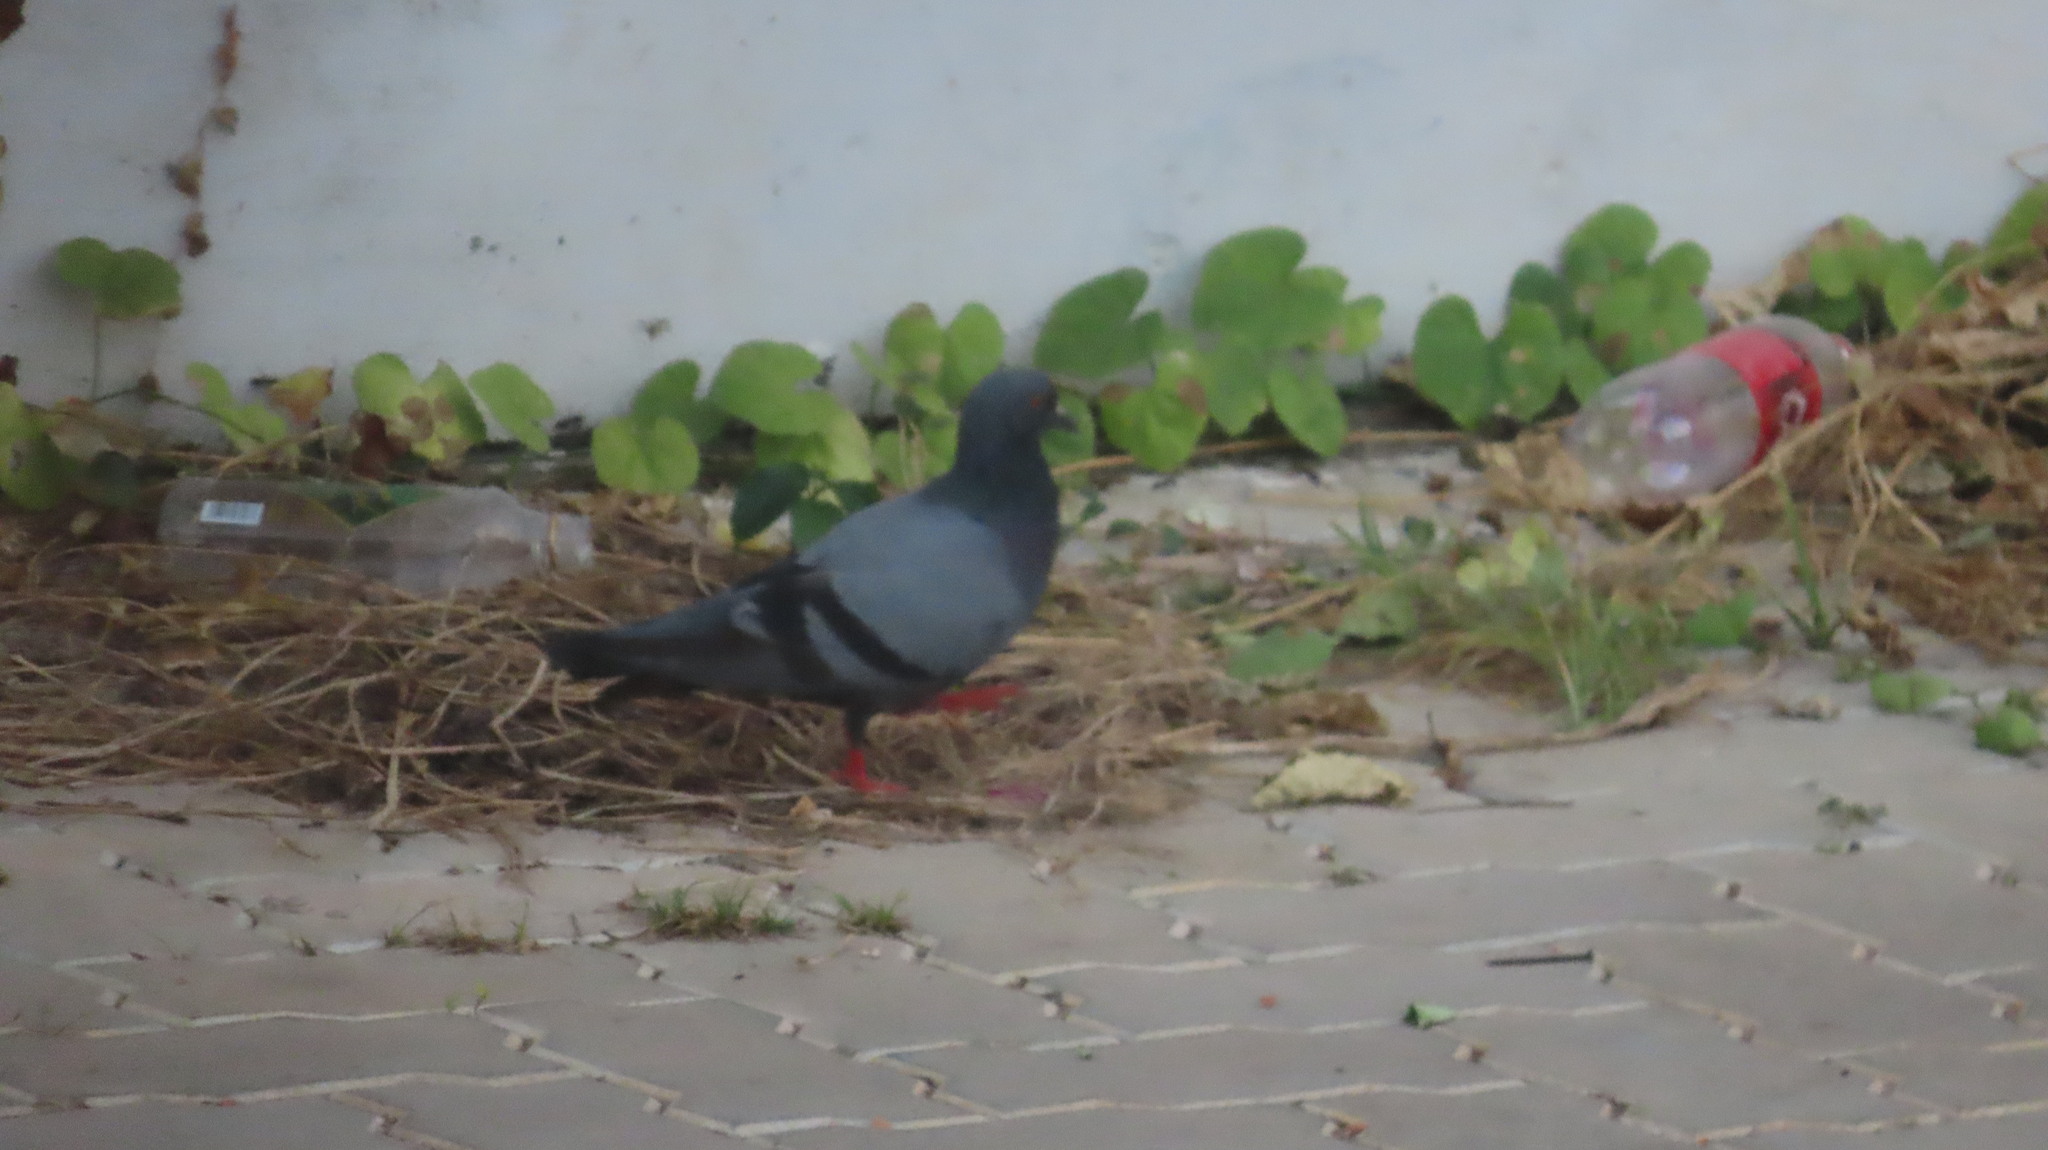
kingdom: Animalia
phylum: Chordata
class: Aves
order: Columbiformes
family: Columbidae
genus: Columba
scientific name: Columba livia
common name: Rock pigeon
